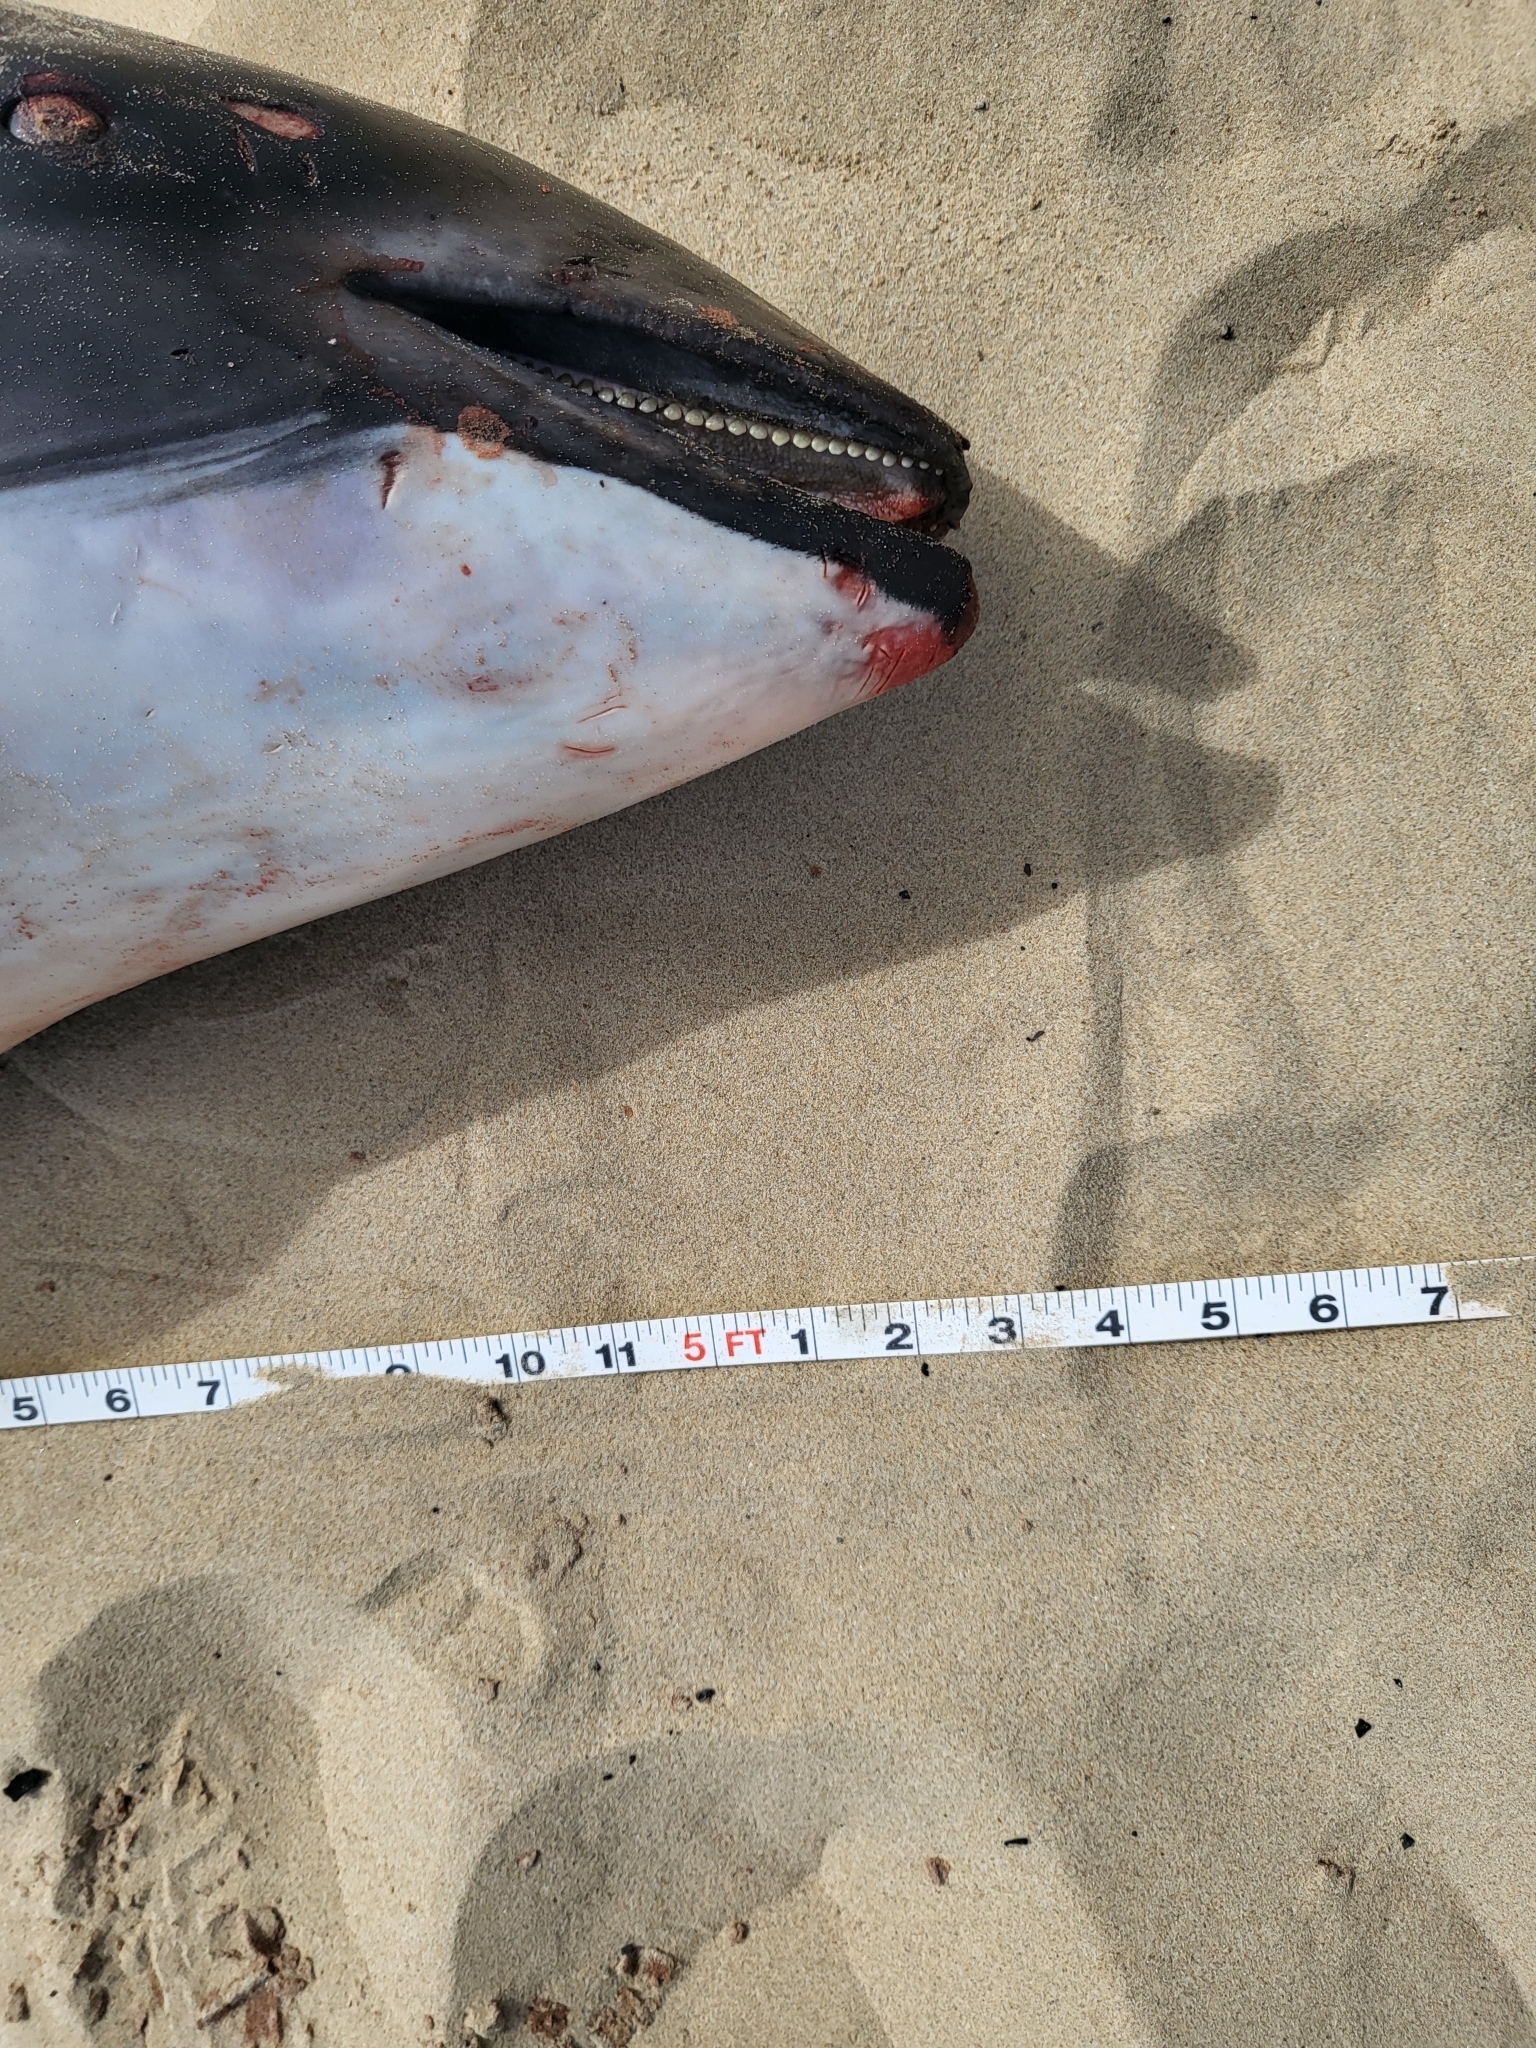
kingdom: Animalia
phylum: Chordata
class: Mammalia
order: Cetacea
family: Phocoenidae
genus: Phocoena
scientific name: Phocoena phocoena
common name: Harbor porpoise
